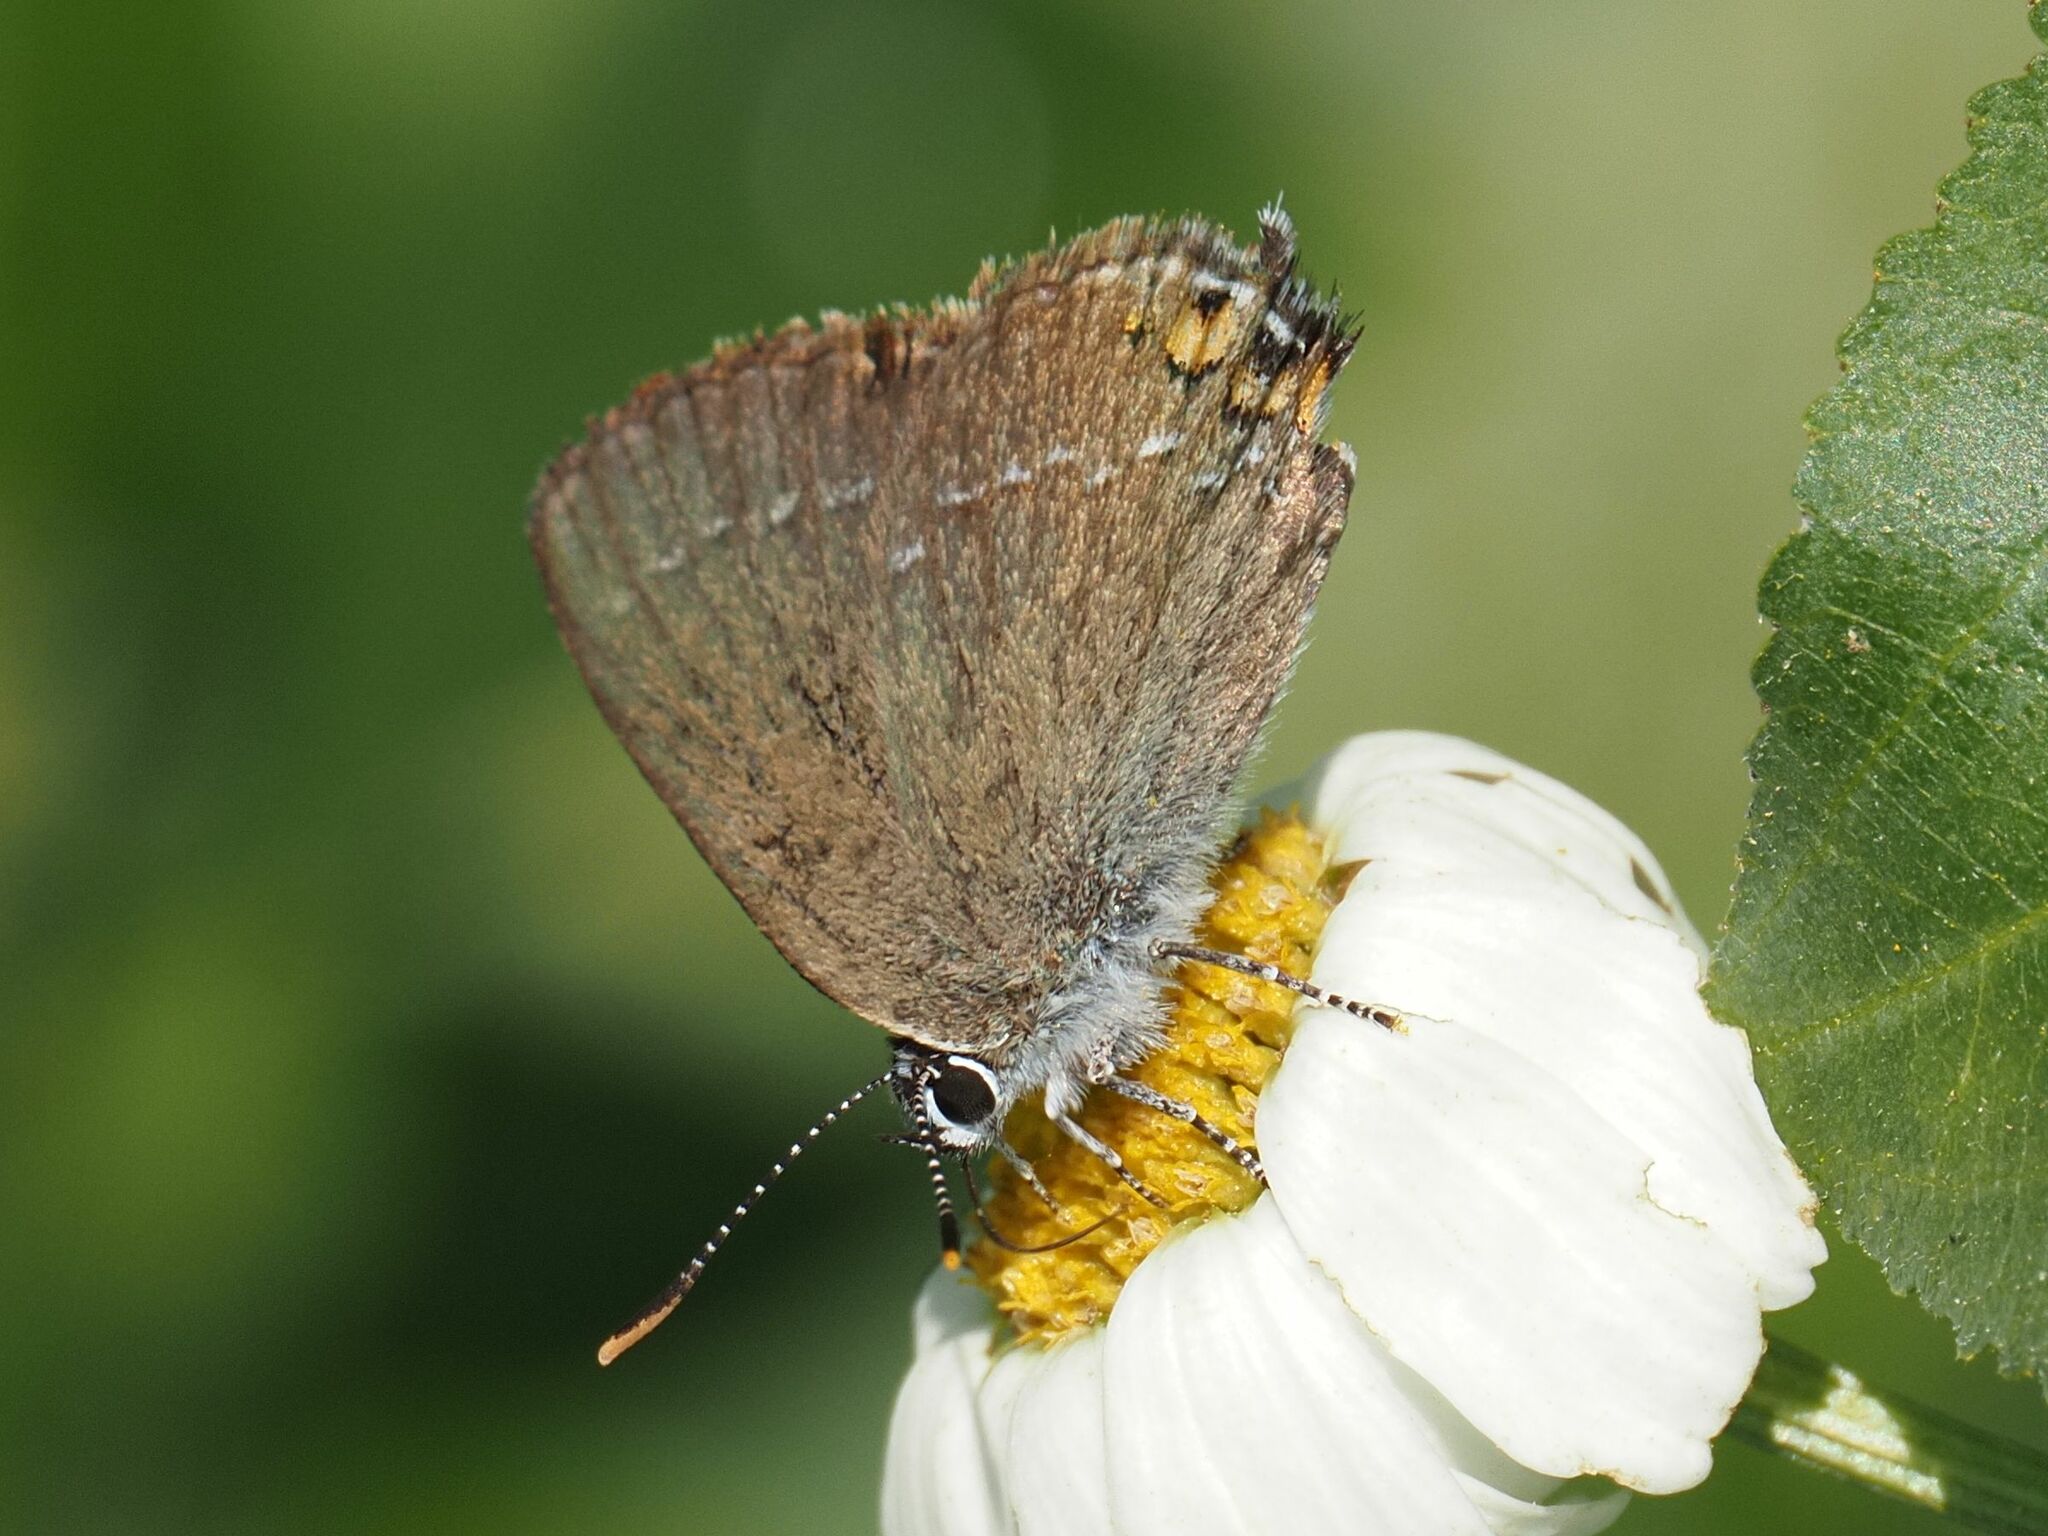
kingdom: Animalia
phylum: Arthropoda
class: Insecta
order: Lepidoptera
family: Lycaenidae
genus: Strymon
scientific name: Strymon acaciae
